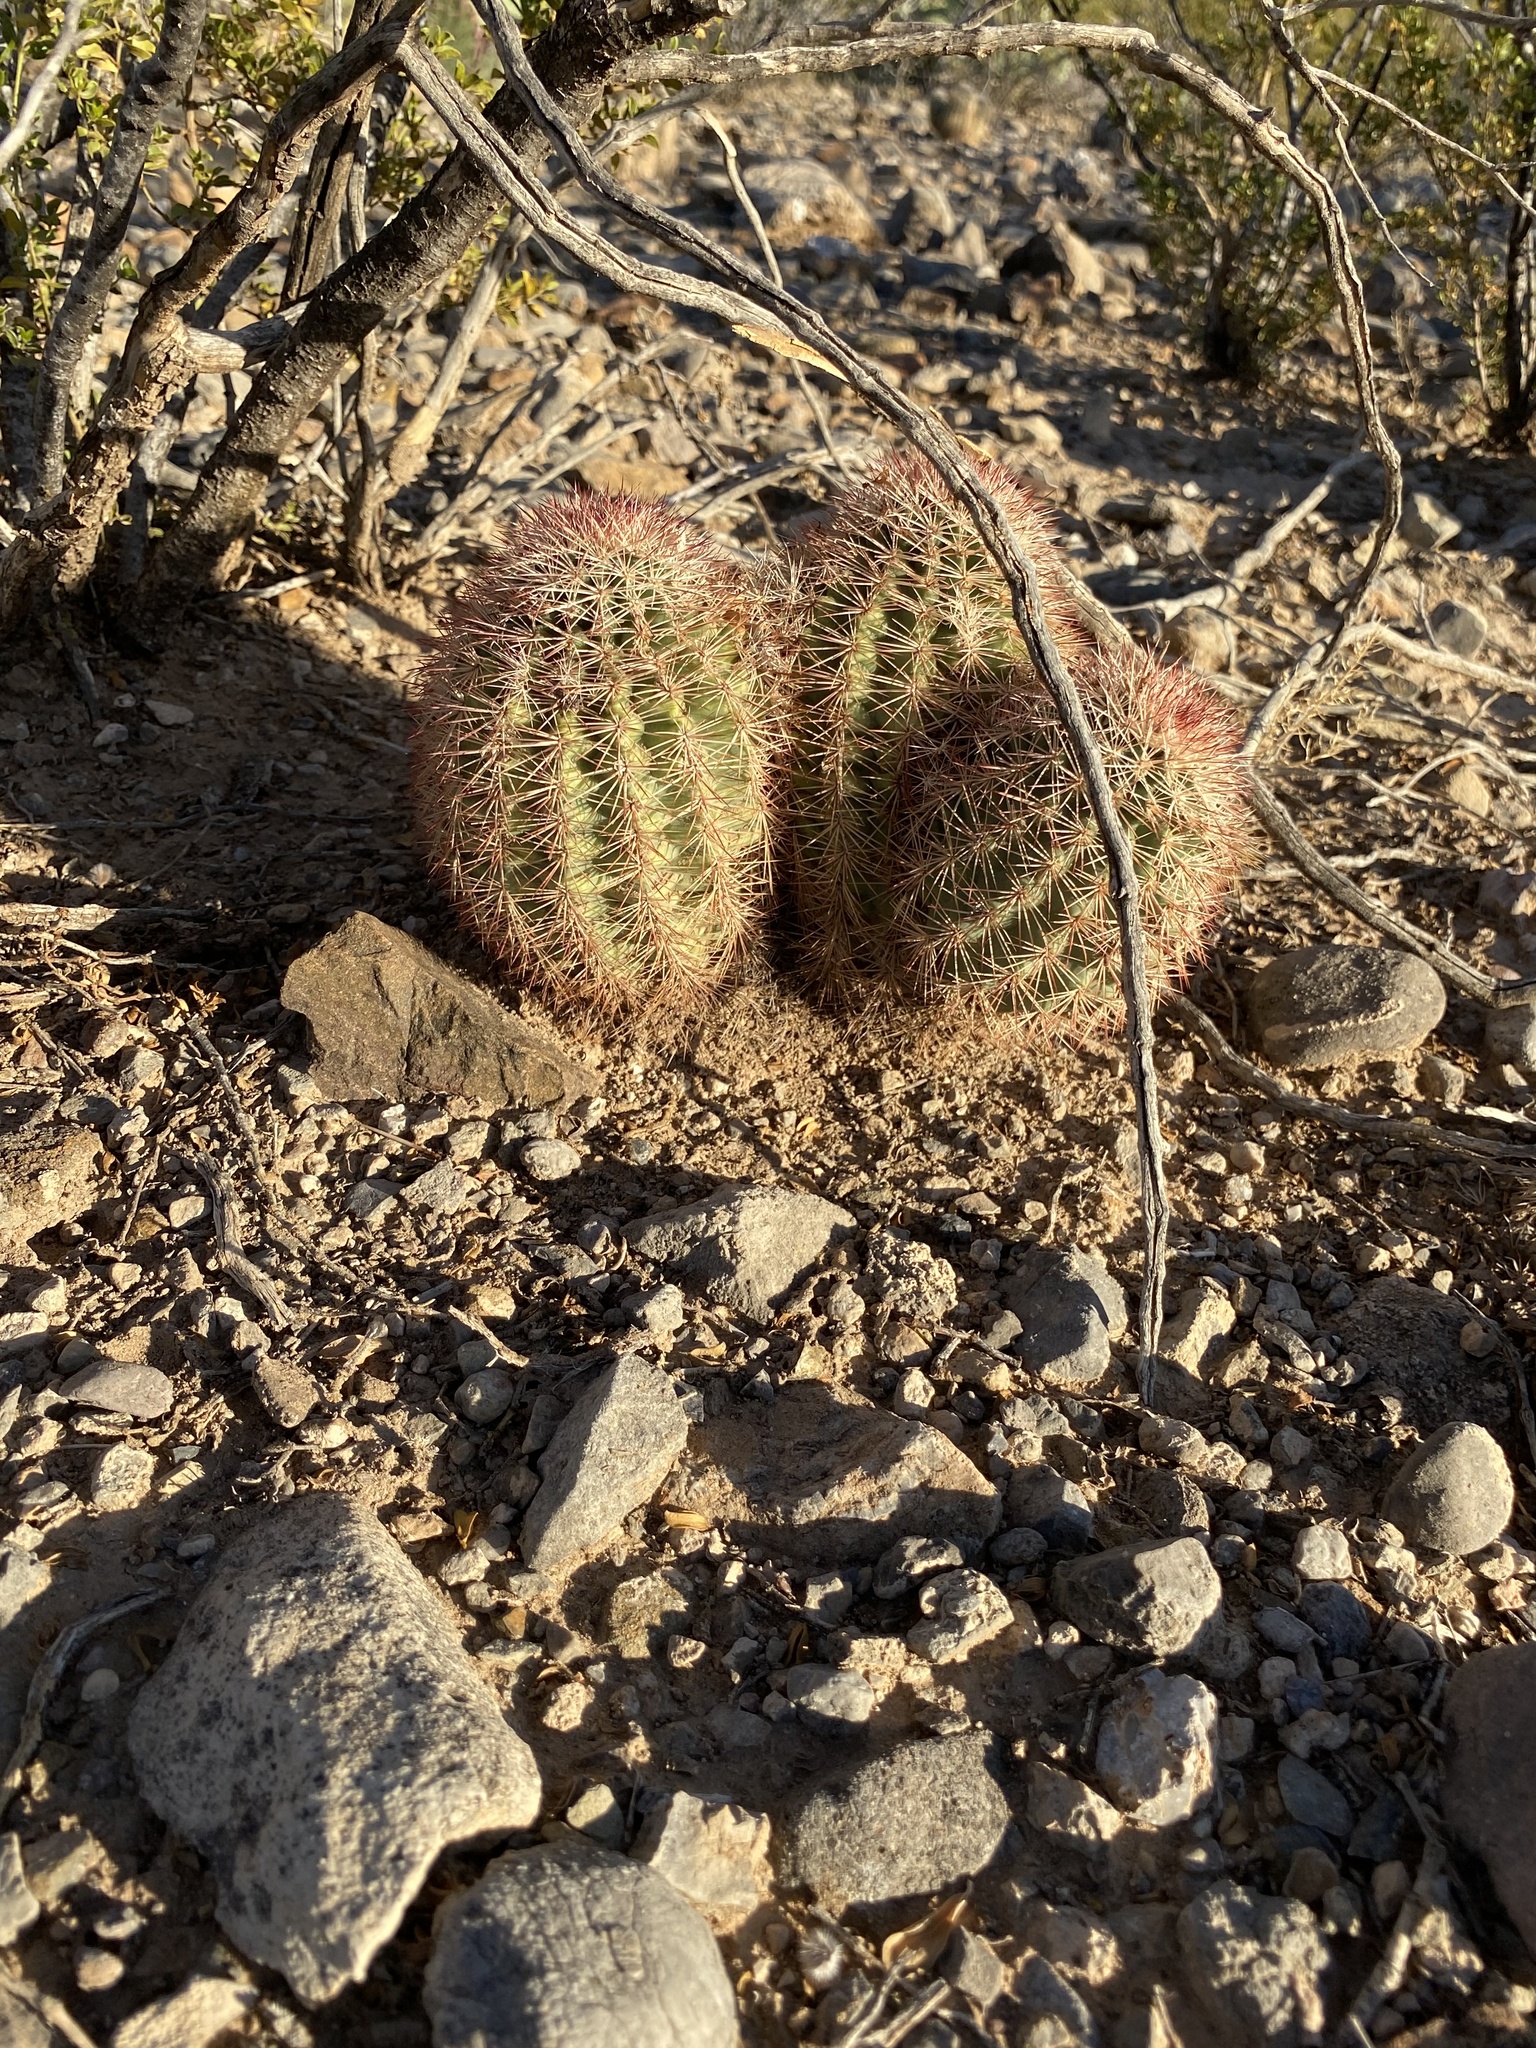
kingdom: Plantae
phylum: Tracheophyta
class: Magnoliopsida
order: Caryophyllales
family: Cactaceae
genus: Echinocereus
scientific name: Echinocereus dasyacanthus
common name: Spiny hedgehog cactus
